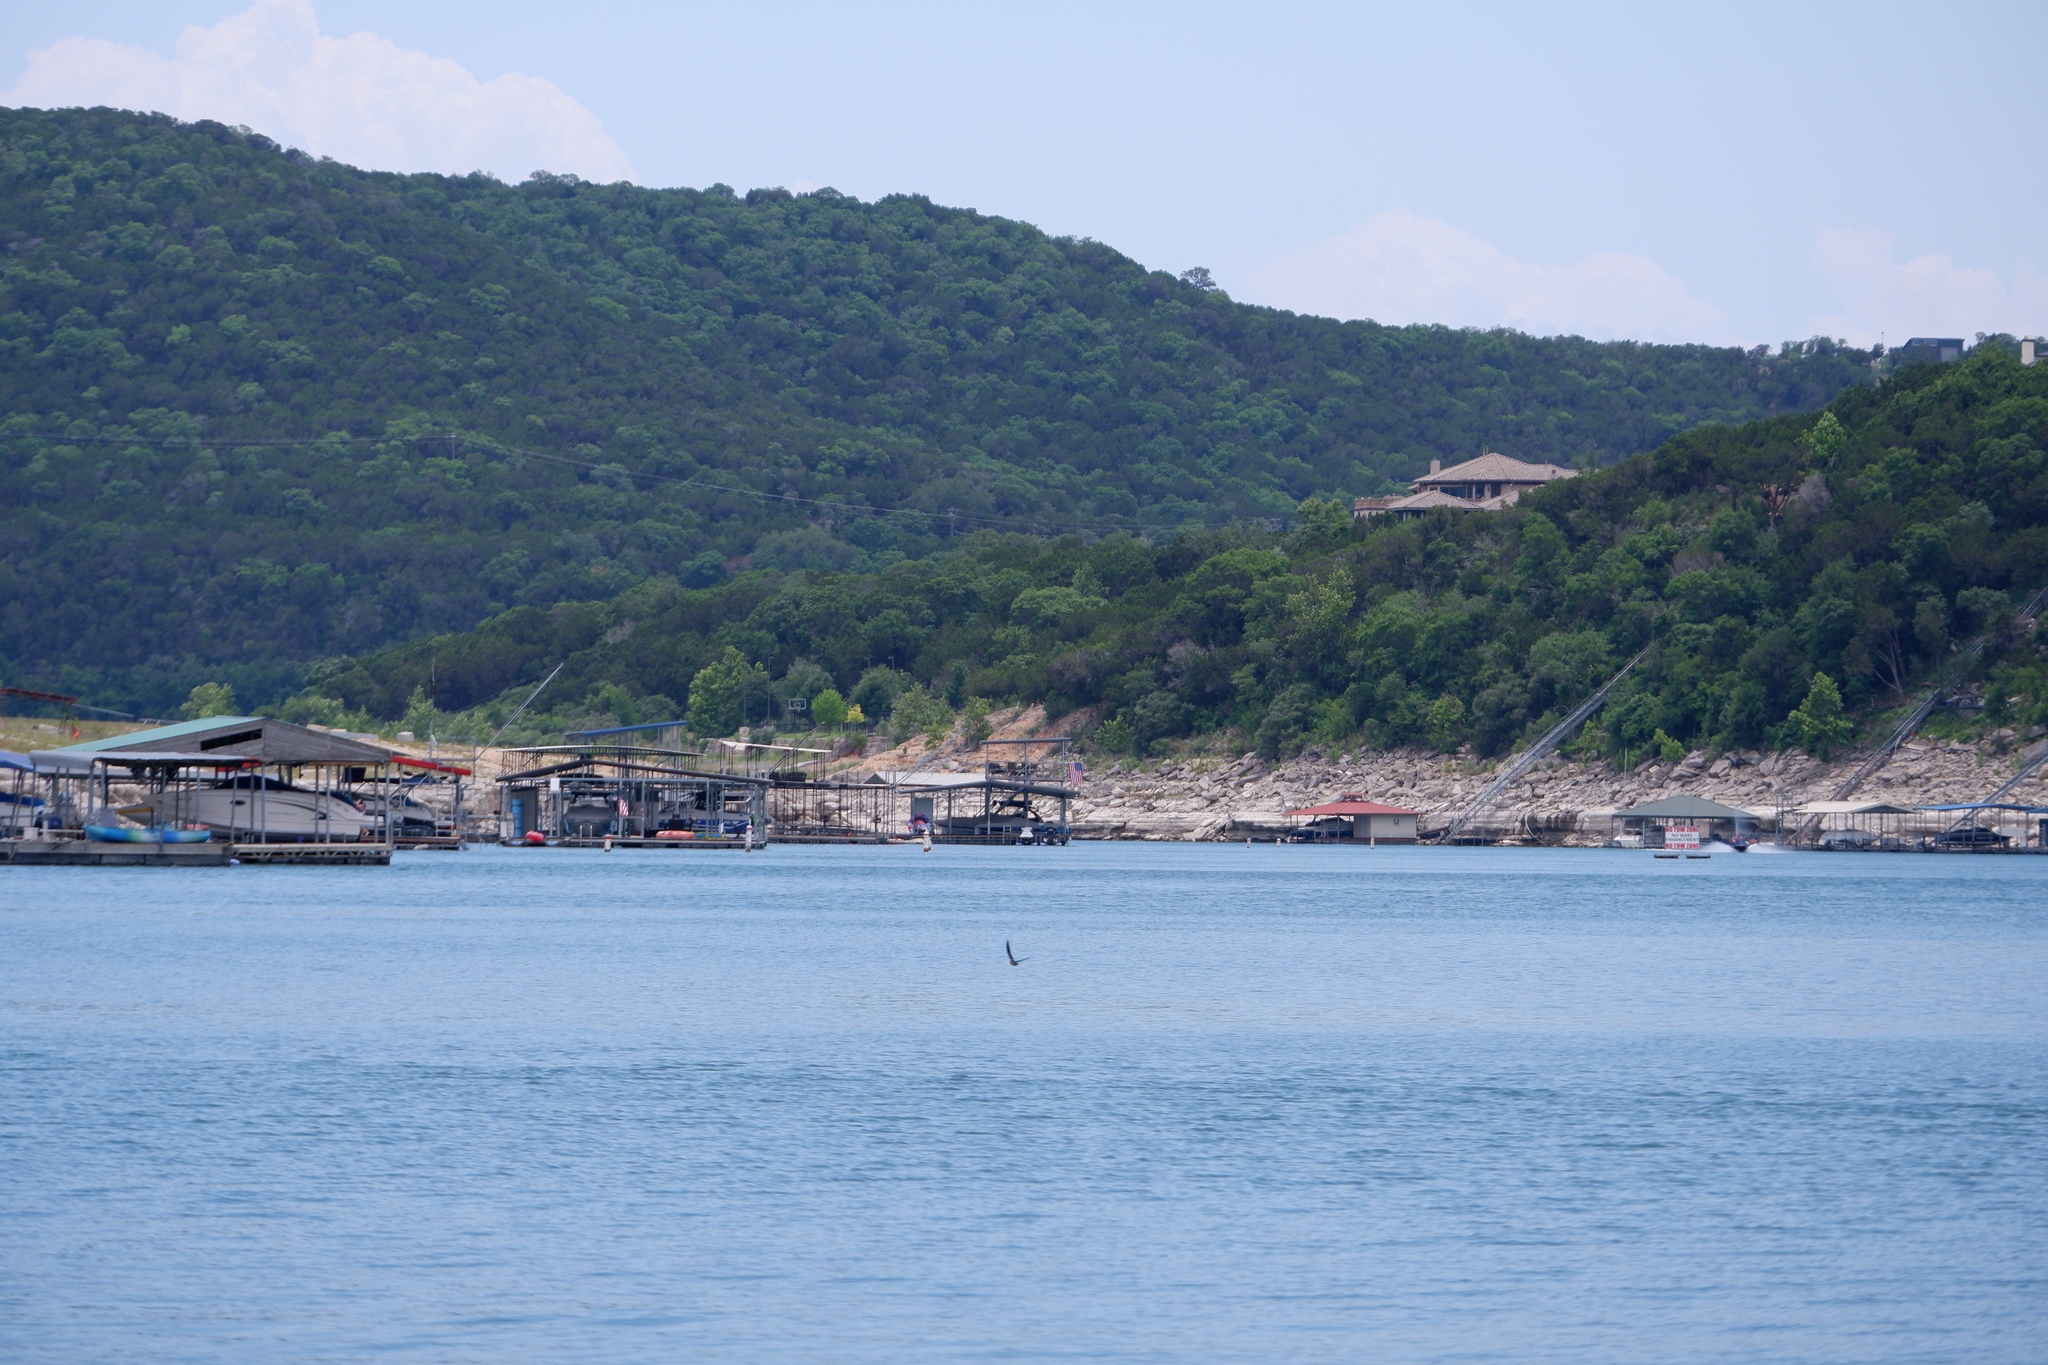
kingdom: Animalia
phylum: Chordata
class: Aves
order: Passeriformes
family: Hirundinidae
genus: Hirundo
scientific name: Hirundo rustica
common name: Barn swallow
